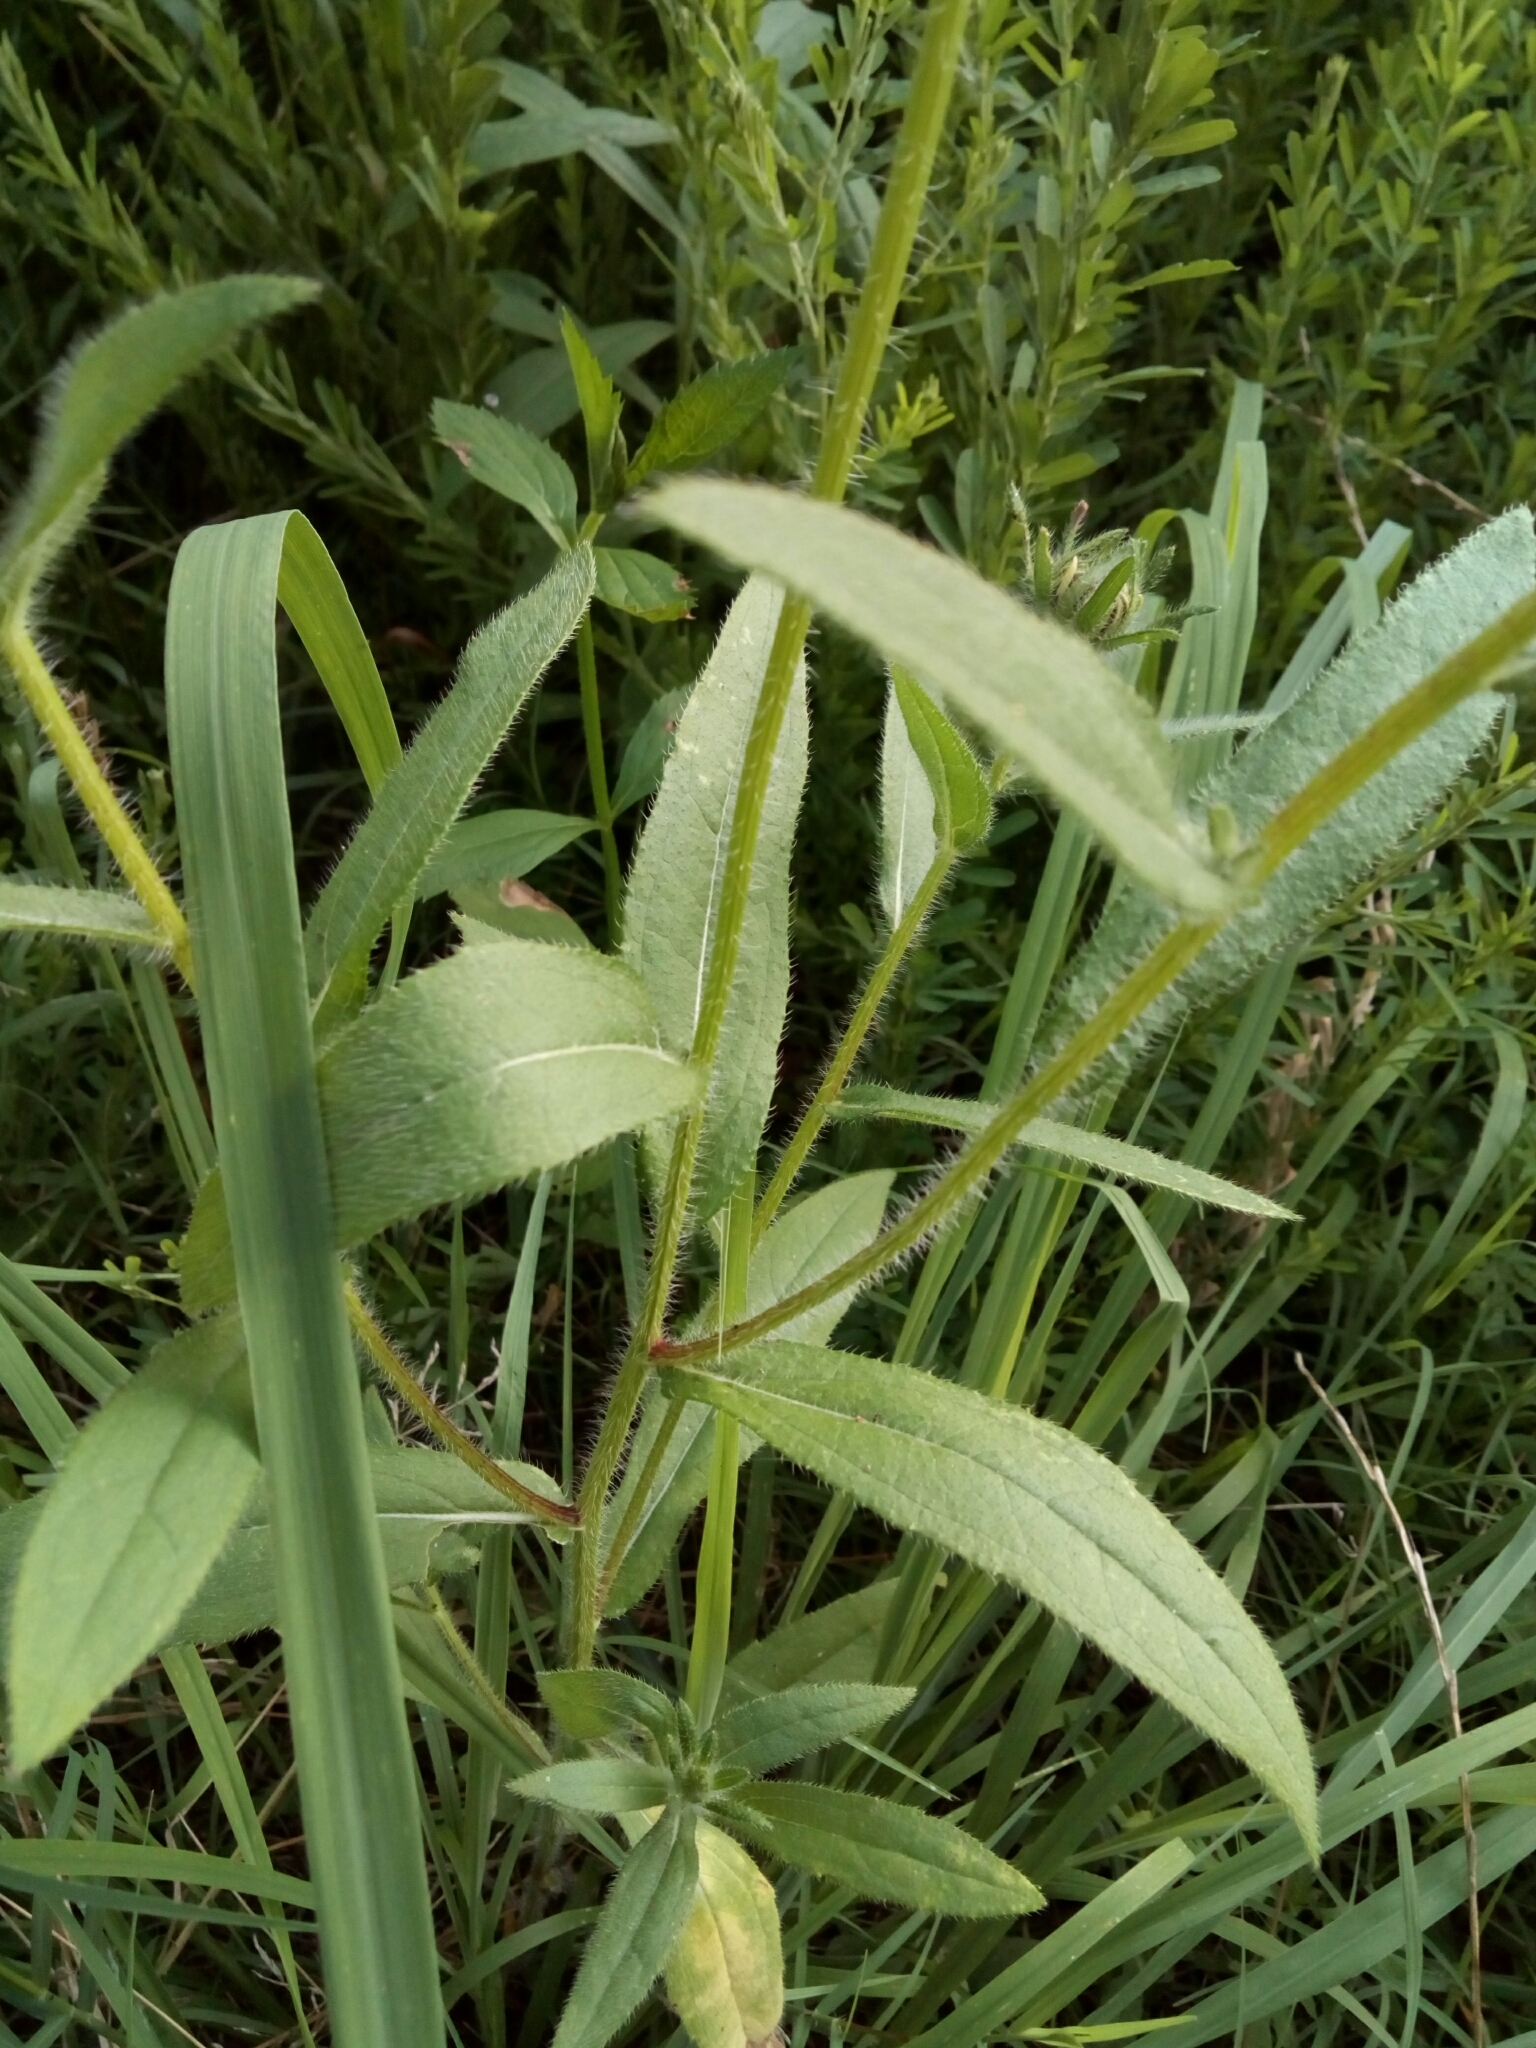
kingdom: Plantae
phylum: Tracheophyta
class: Magnoliopsida
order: Asterales
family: Asteraceae
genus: Rudbeckia
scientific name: Rudbeckia hirta
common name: Black-eyed-susan
